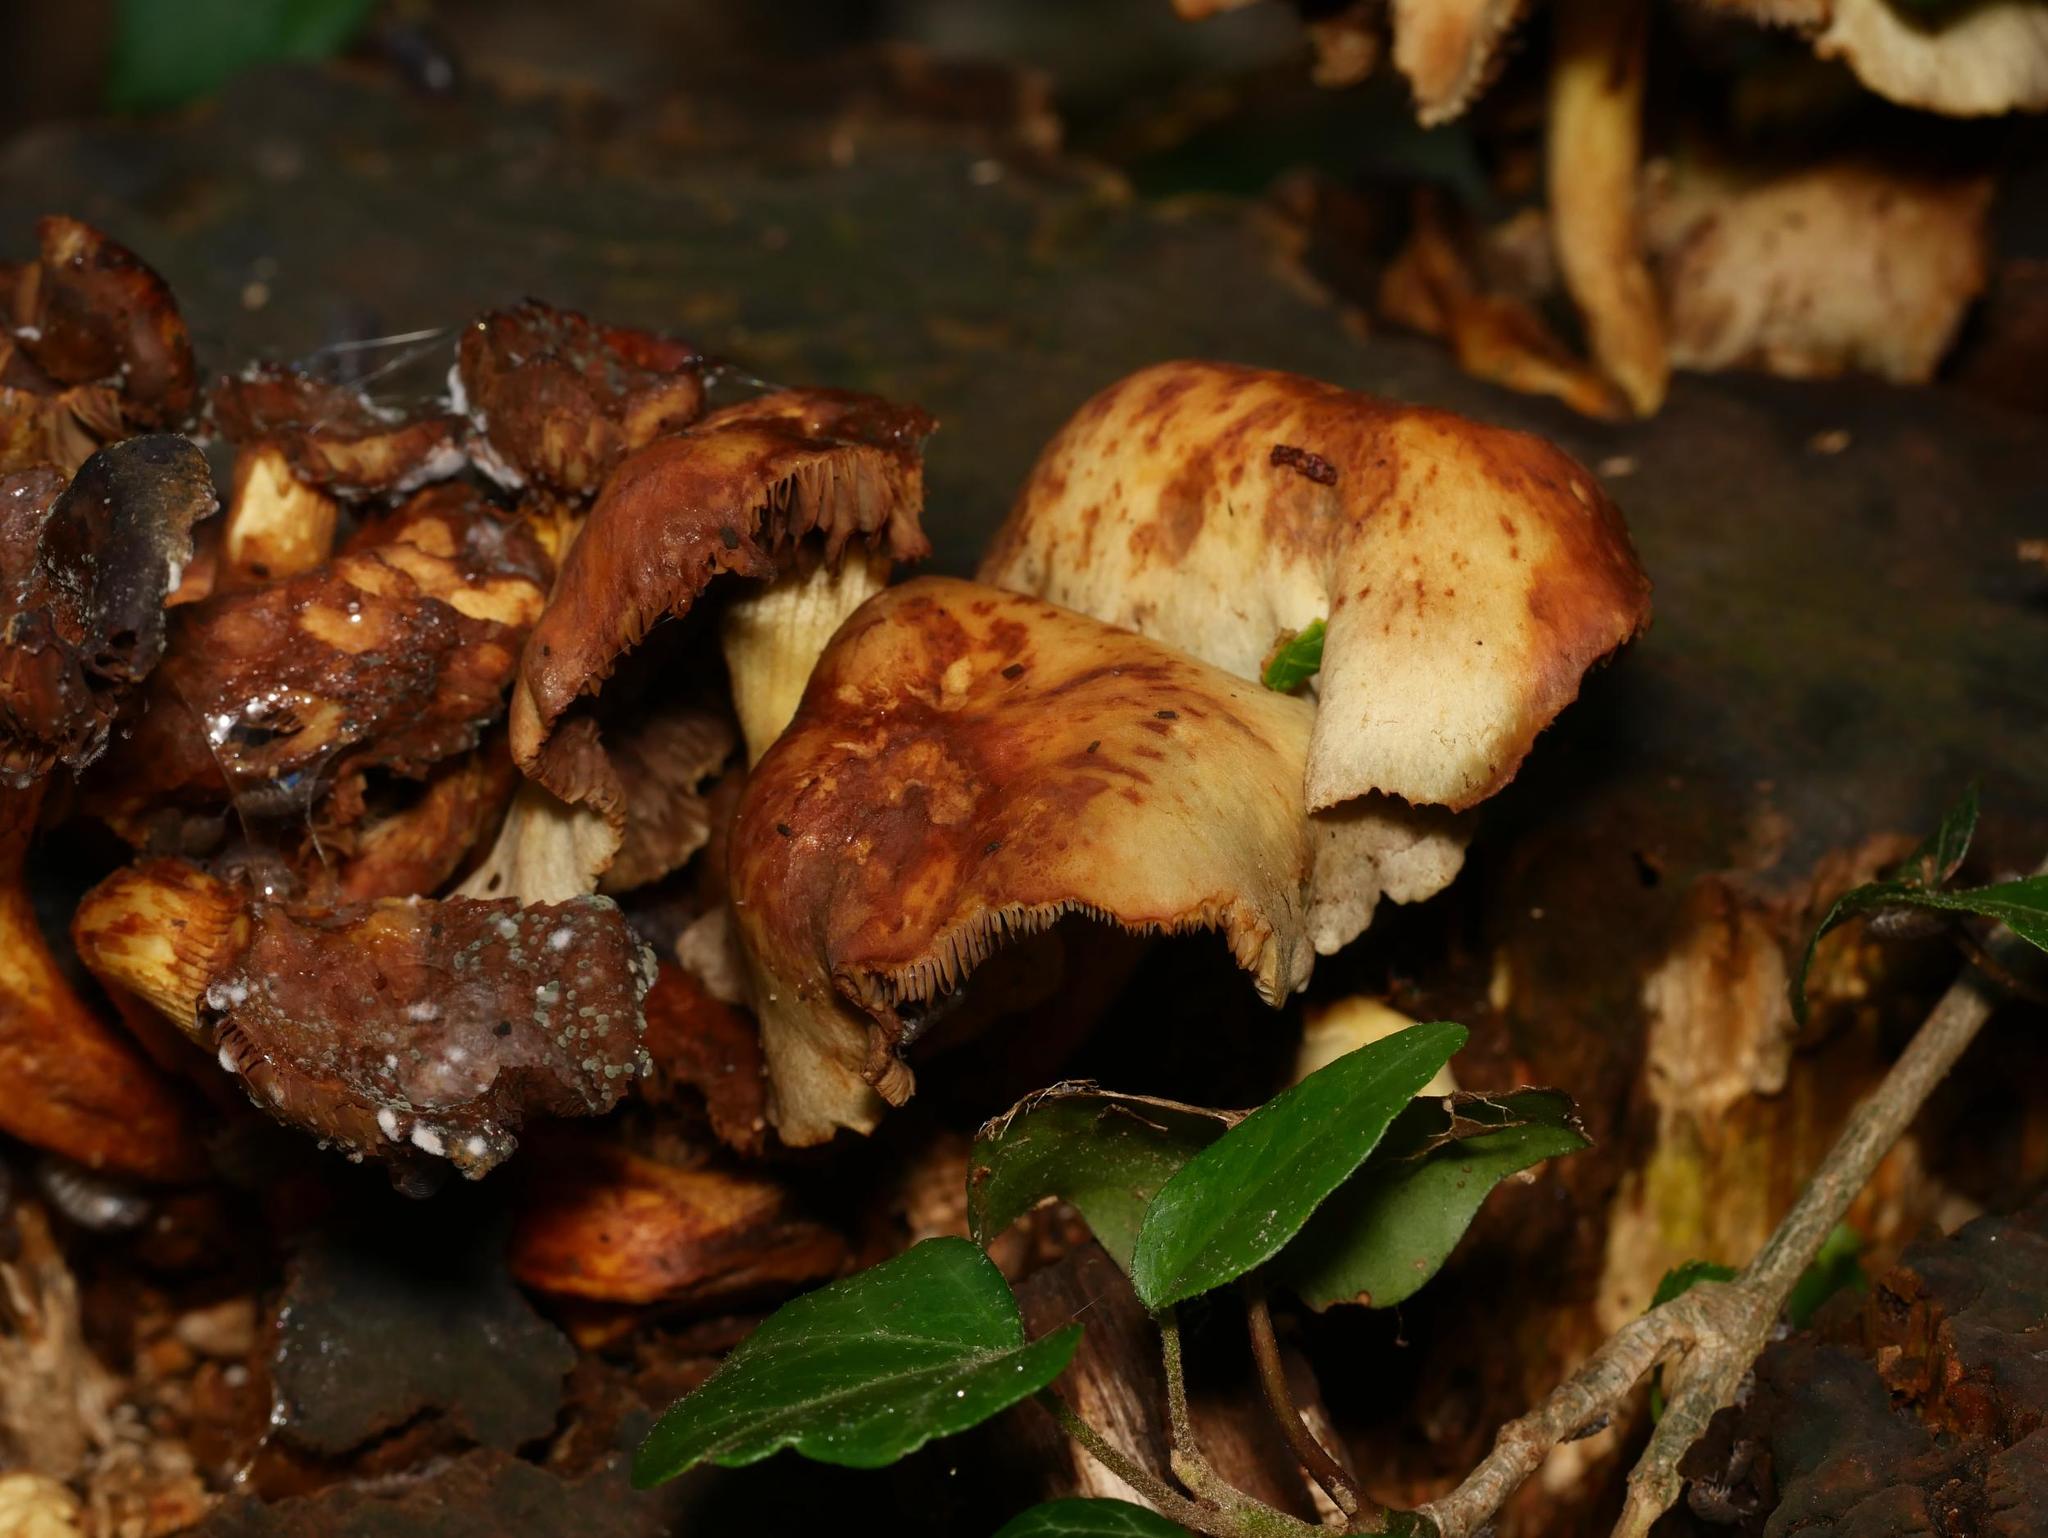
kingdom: Plantae
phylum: Tracheophyta
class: Magnoliopsida
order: Apiales
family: Araliaceae
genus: Hedera
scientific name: Hedera helix
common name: Ivy
